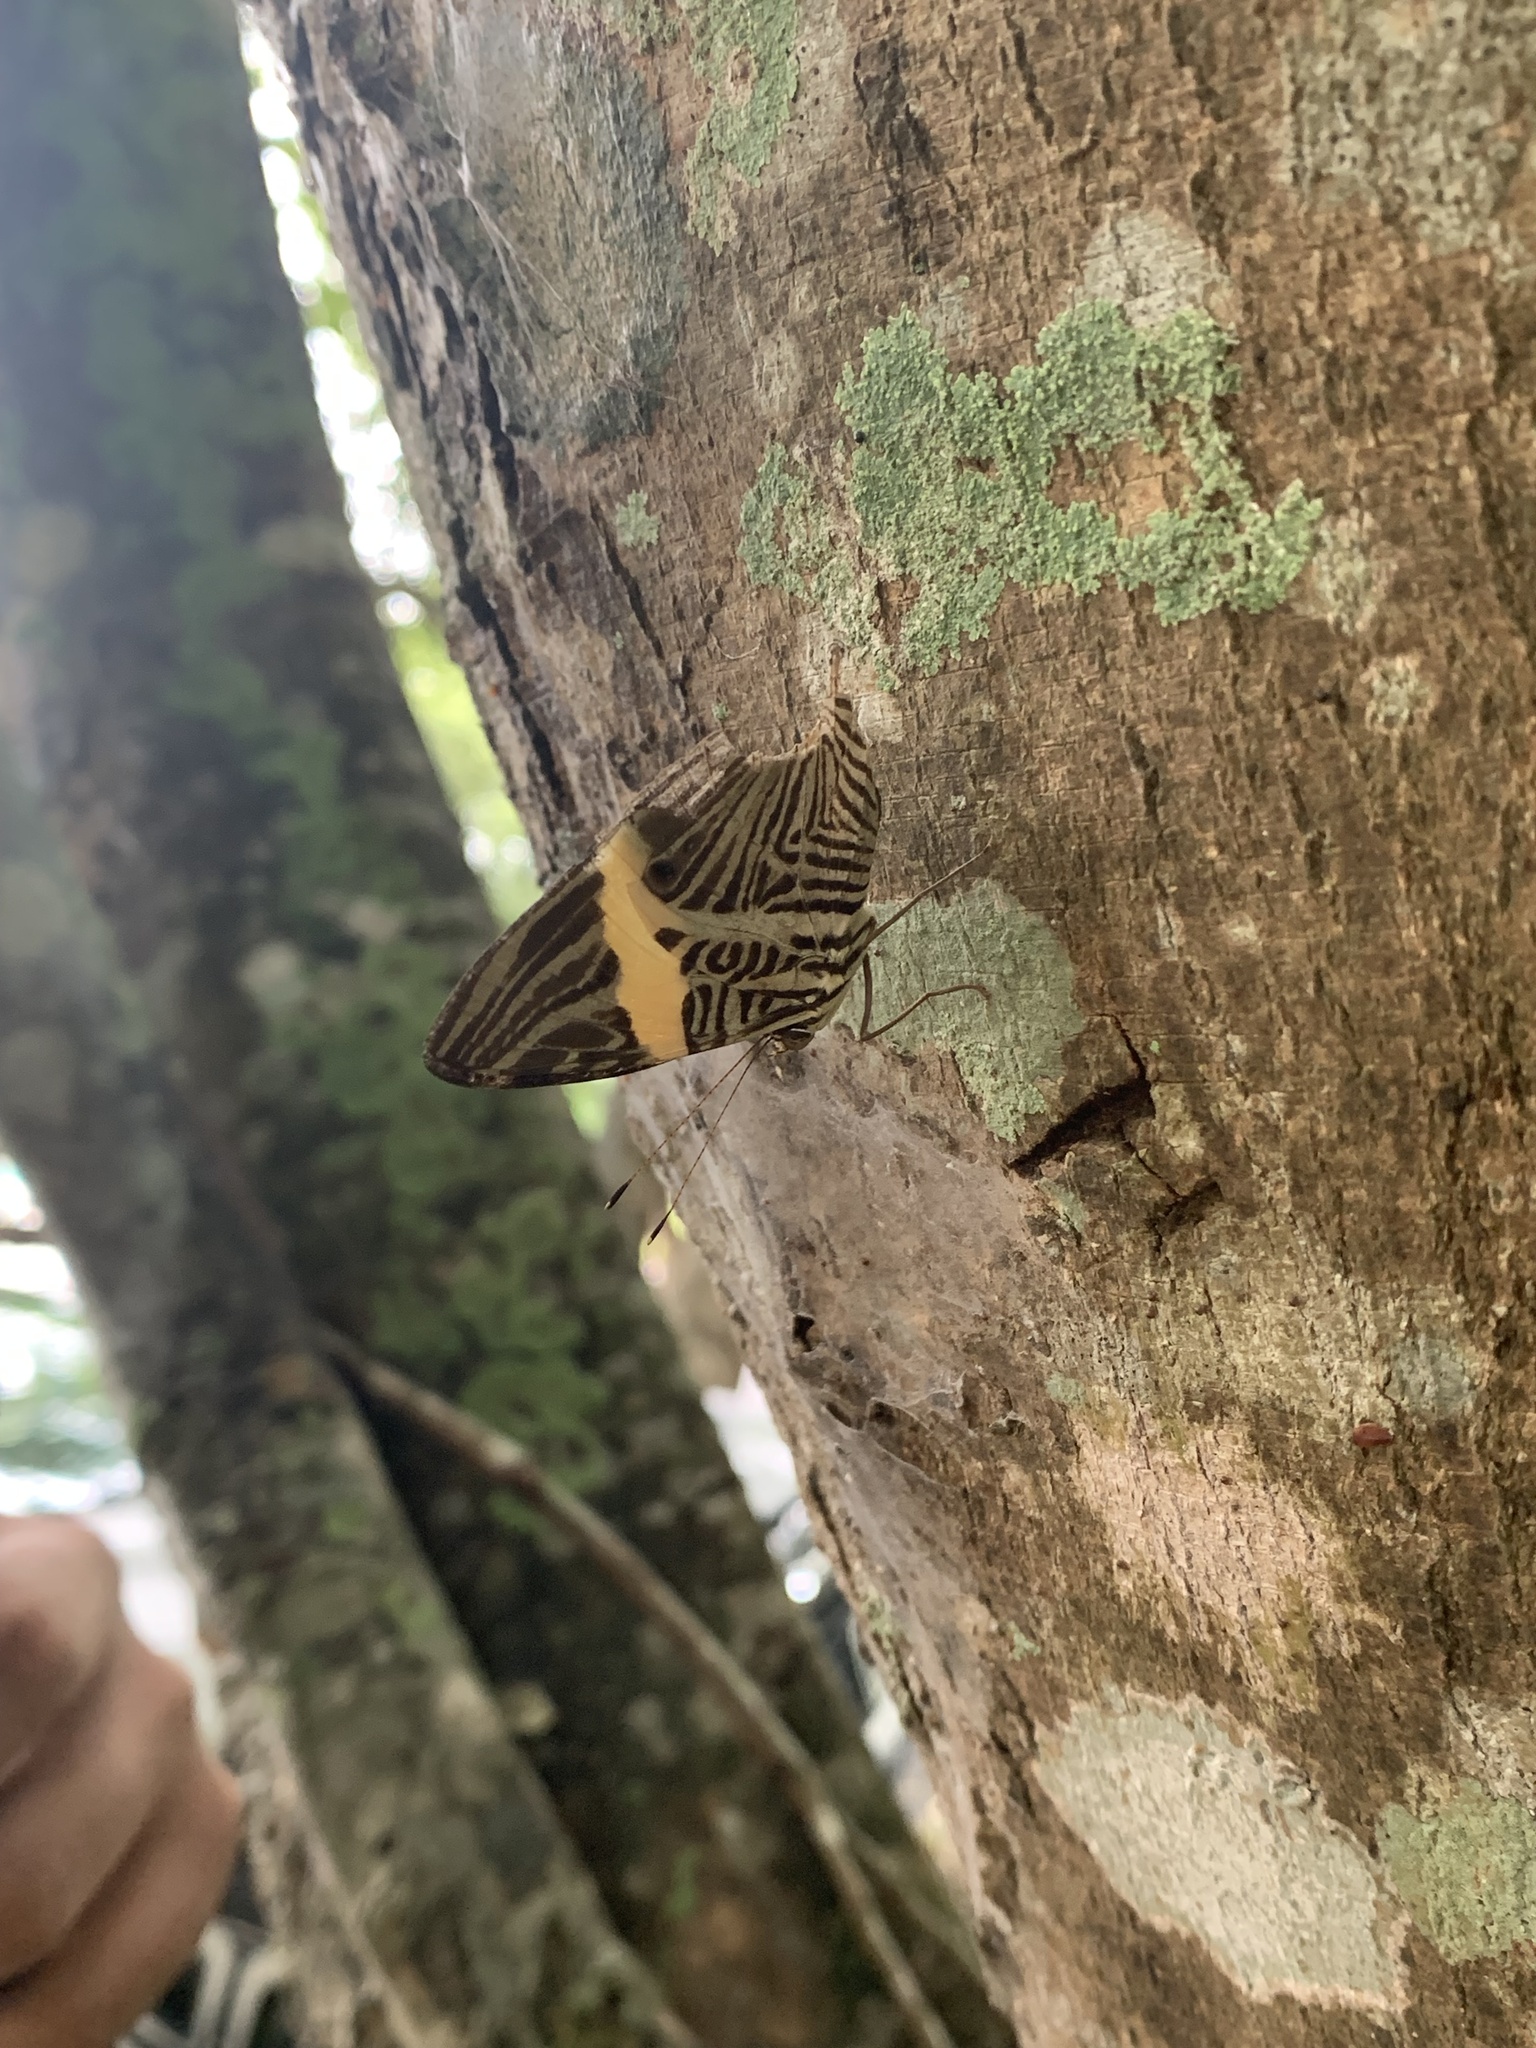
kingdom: Animalia
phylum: Arthropoda
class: Insecta
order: Lepidoptera
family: Nymphalidae
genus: Colobura
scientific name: Colobura dirce
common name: Dirce beauty
